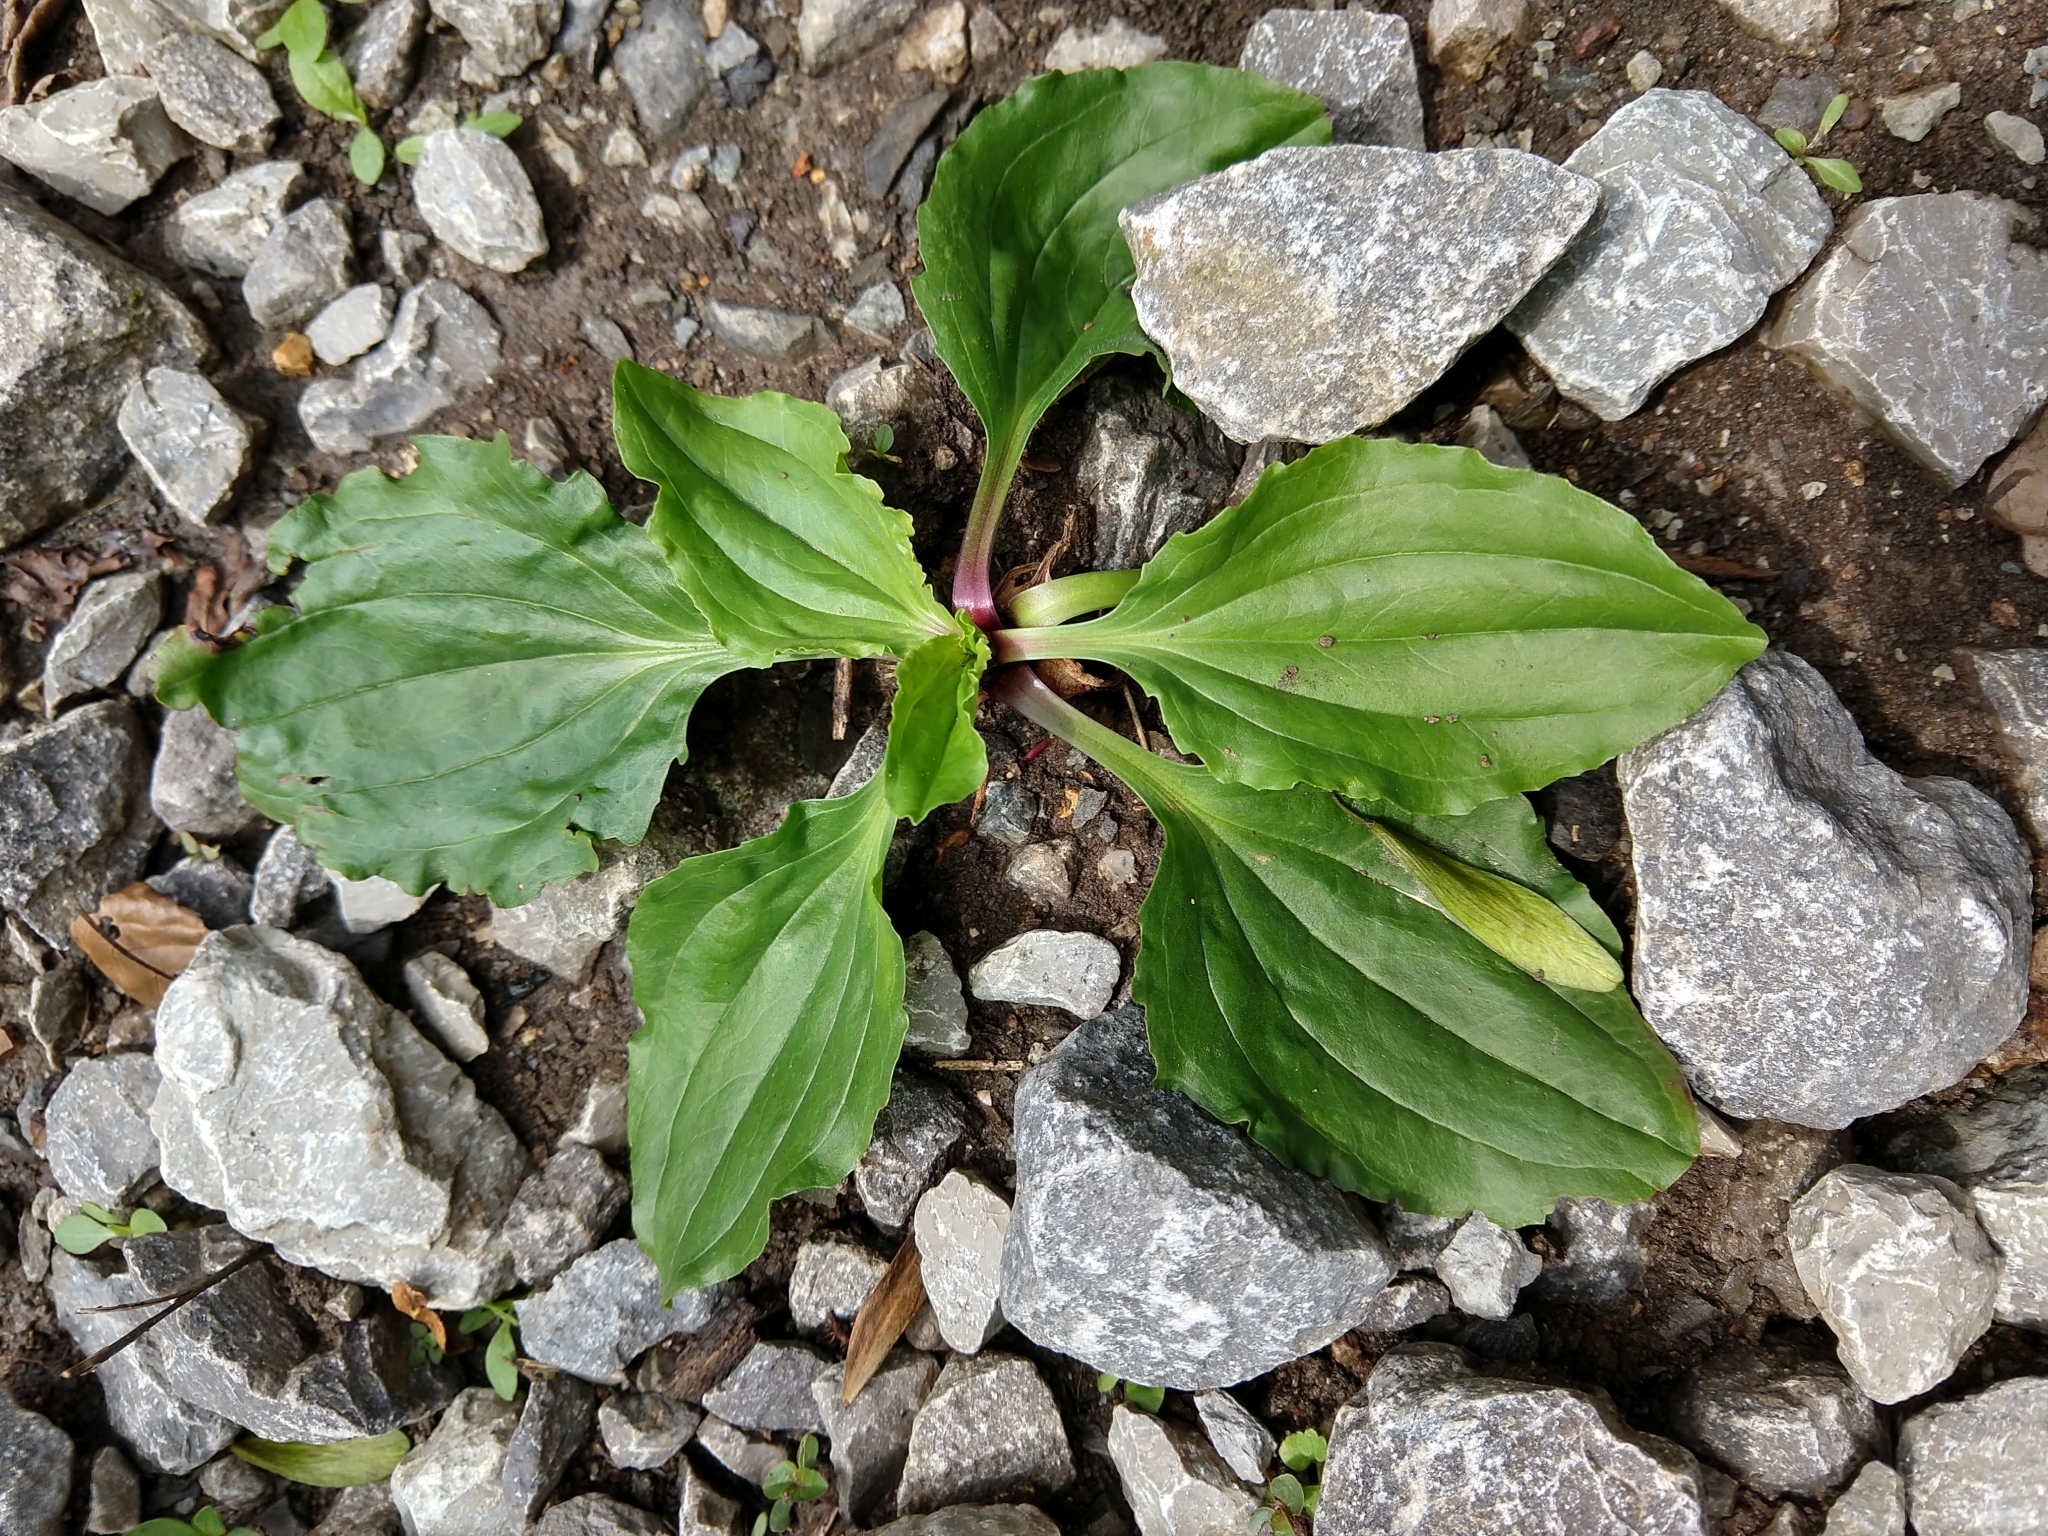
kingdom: Plantae
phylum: Tracheophyta
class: Magnoliopsida
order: Lamiales
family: Plantaginaceae
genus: Plantago
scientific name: Plantago rugelii
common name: American plantain
